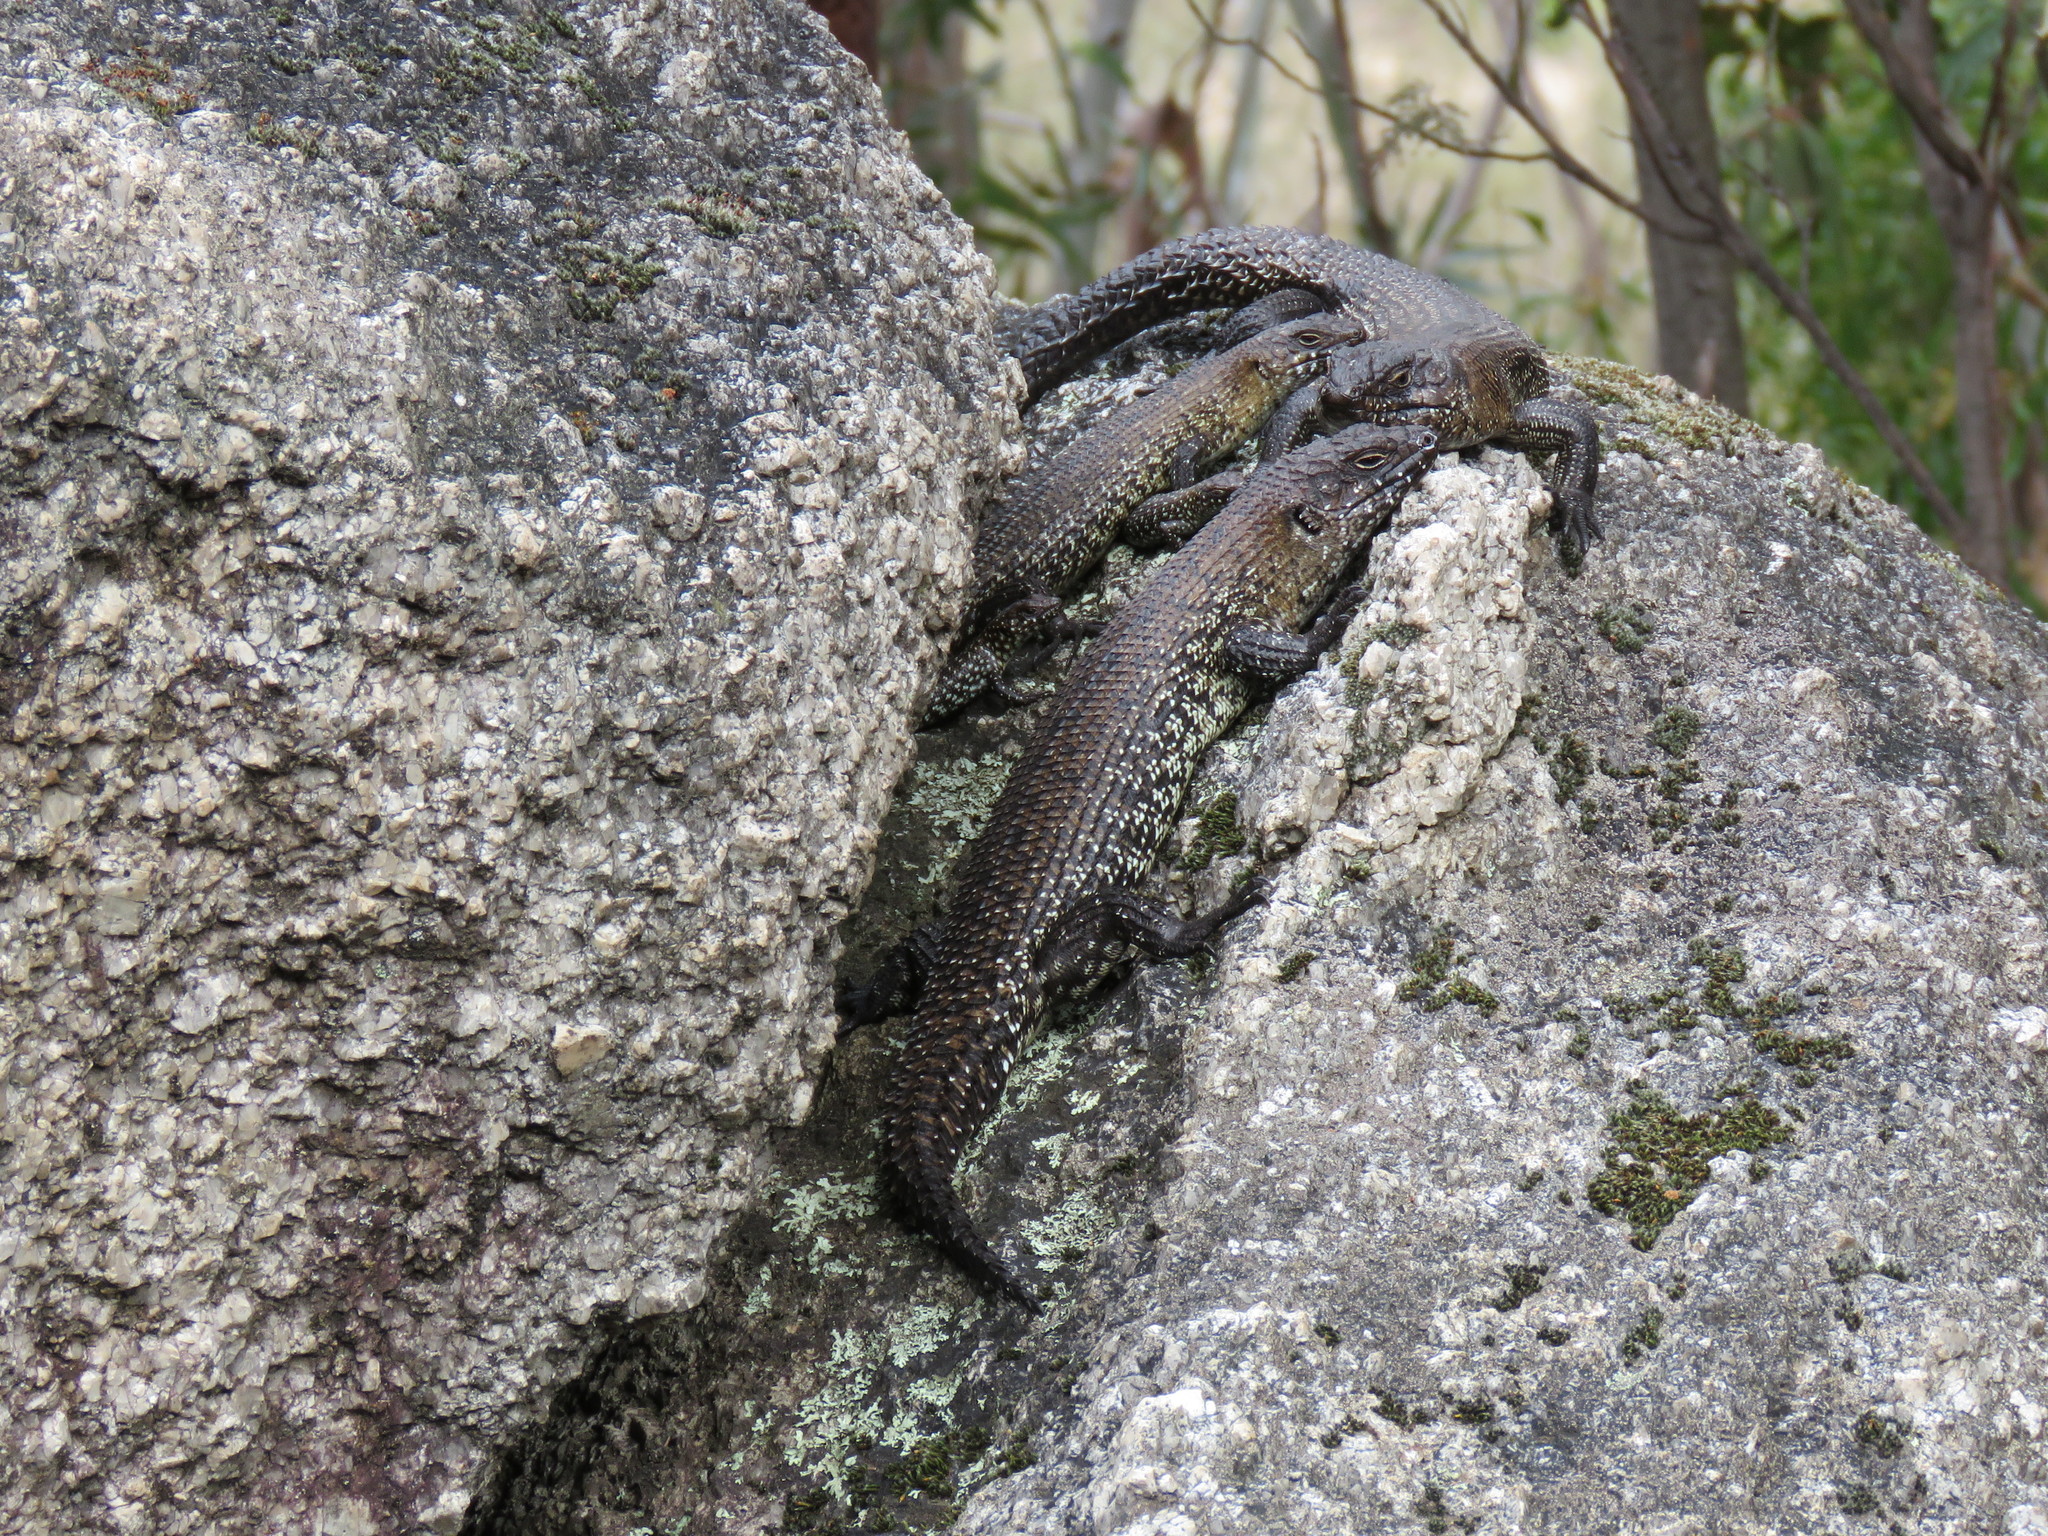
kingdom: Animalia
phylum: Chordata
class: Squamata
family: Scincidae
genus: Egernia
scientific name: Egernia cunninghami
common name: Cunningham's skink
